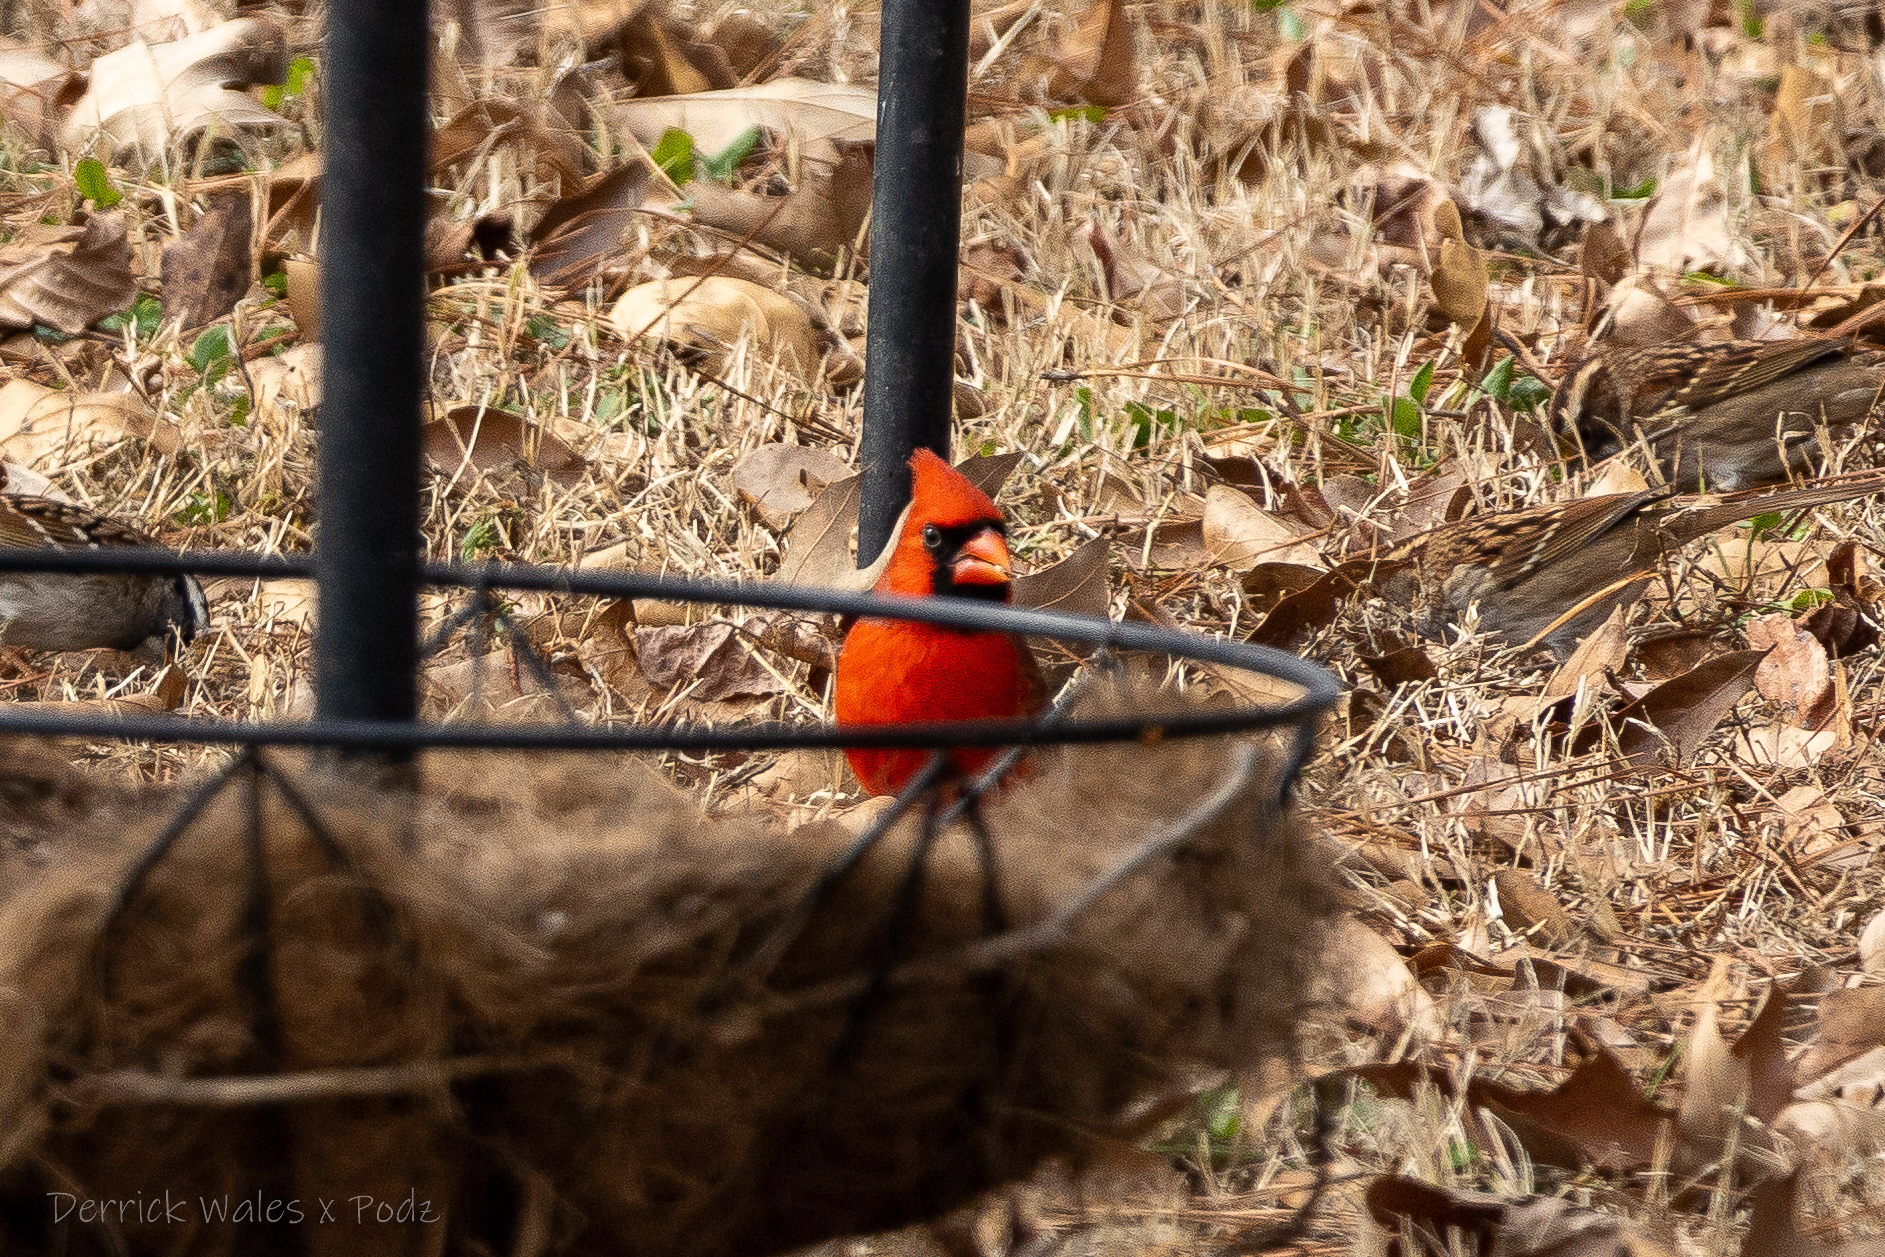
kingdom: Animalia
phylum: Chordata
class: Aves
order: Passeriformes
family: Cardinalidae
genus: Cardinalis
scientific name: Cardinalis cardinalis
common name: Northern cardinal
